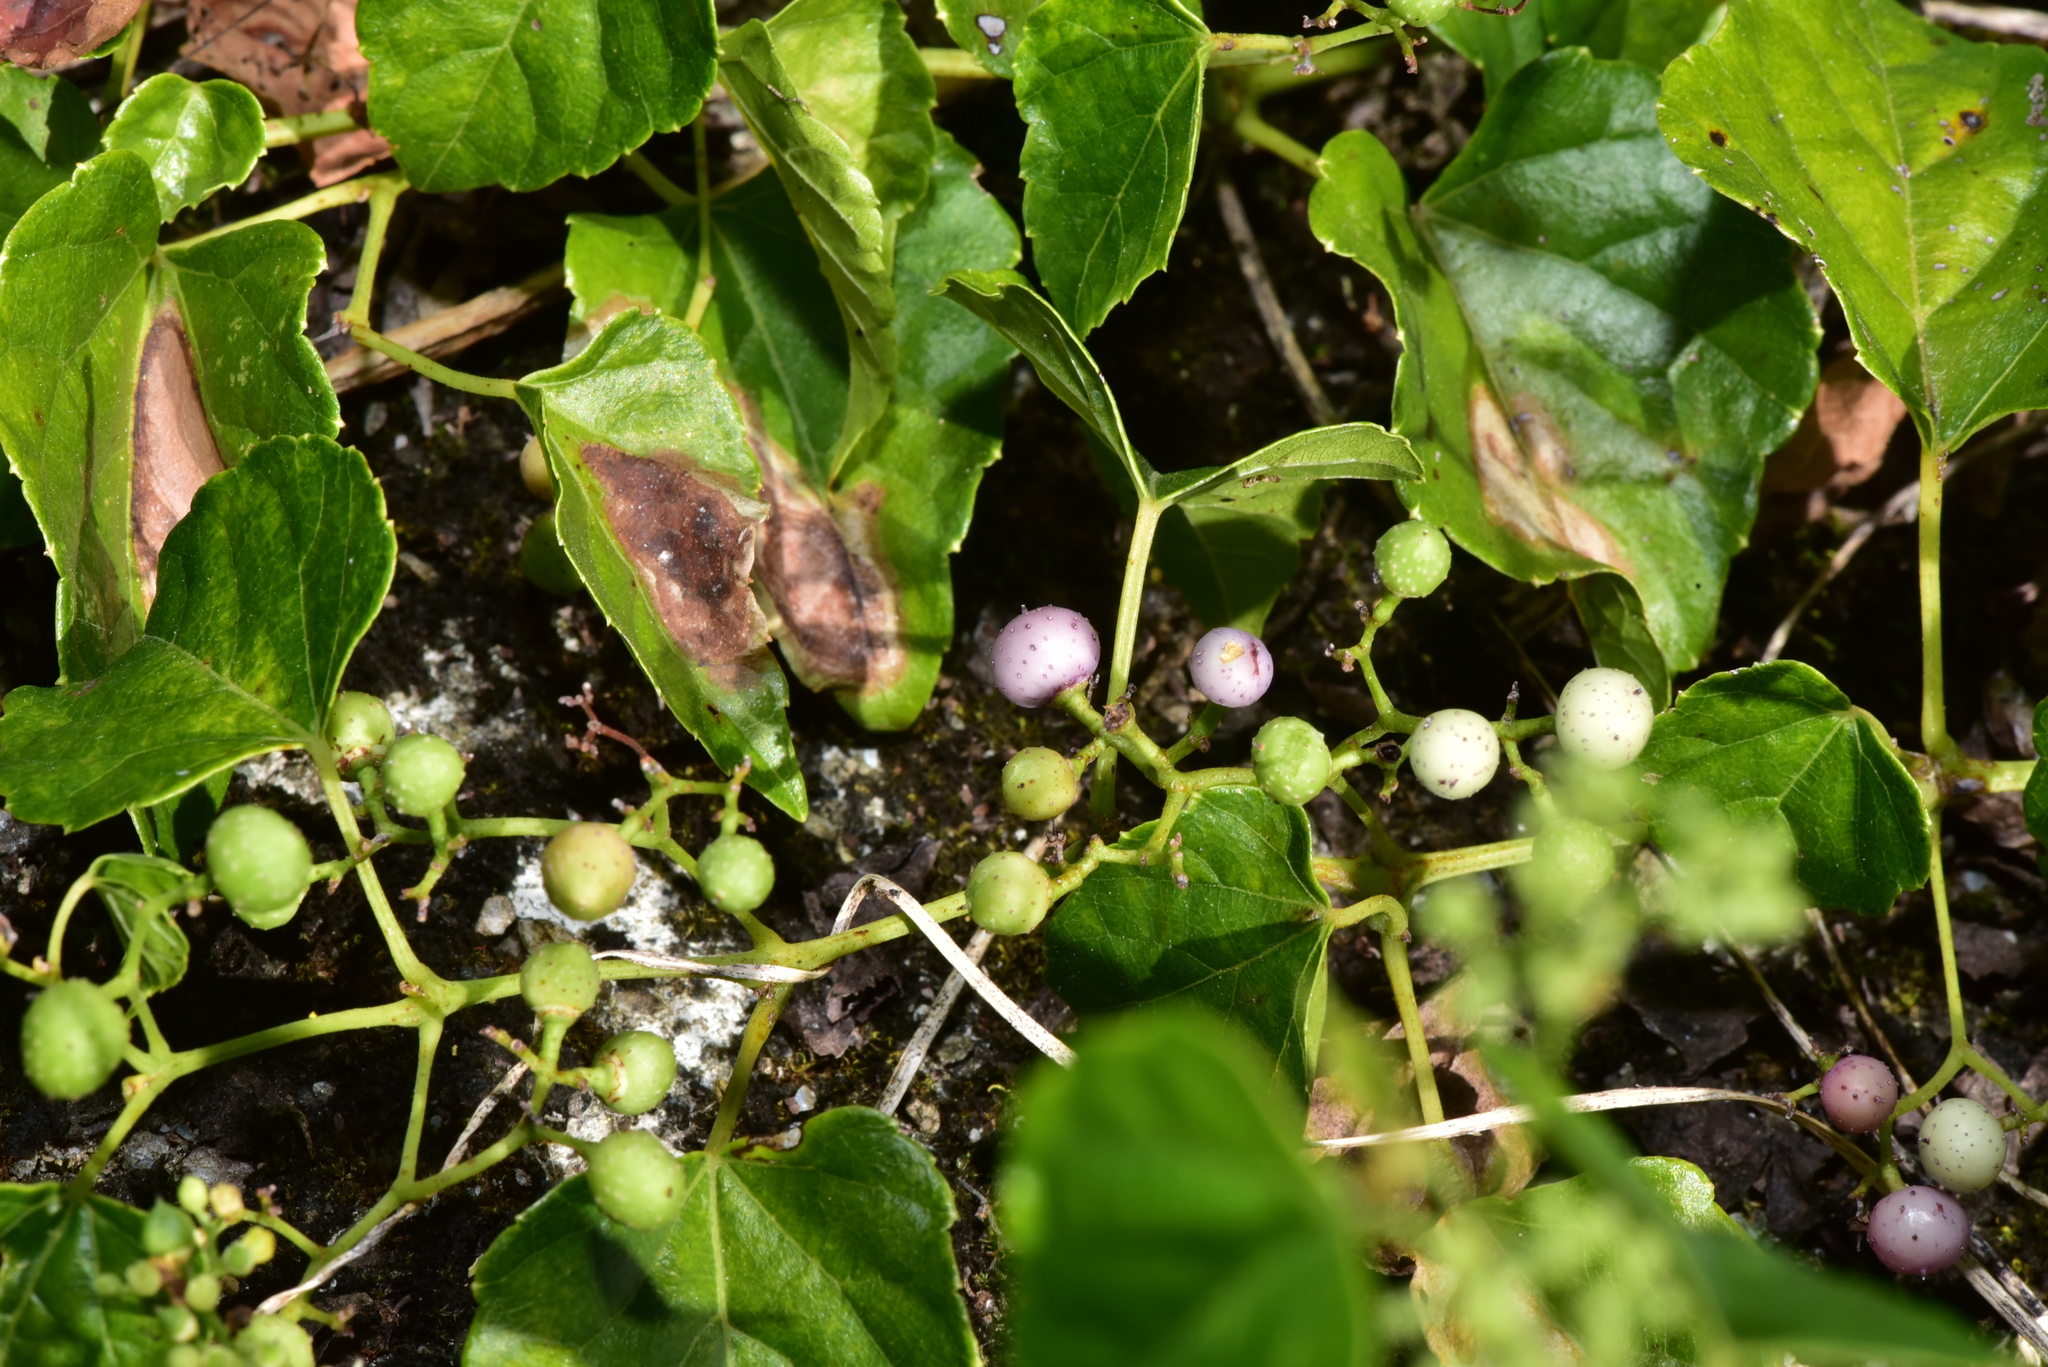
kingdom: Plantae
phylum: Tracheophyta
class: Magnoliopsida
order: Vitales
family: Vitaceae
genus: Ampelopsis
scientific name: Ampelopsis glandulosa
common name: Amur peppervine
